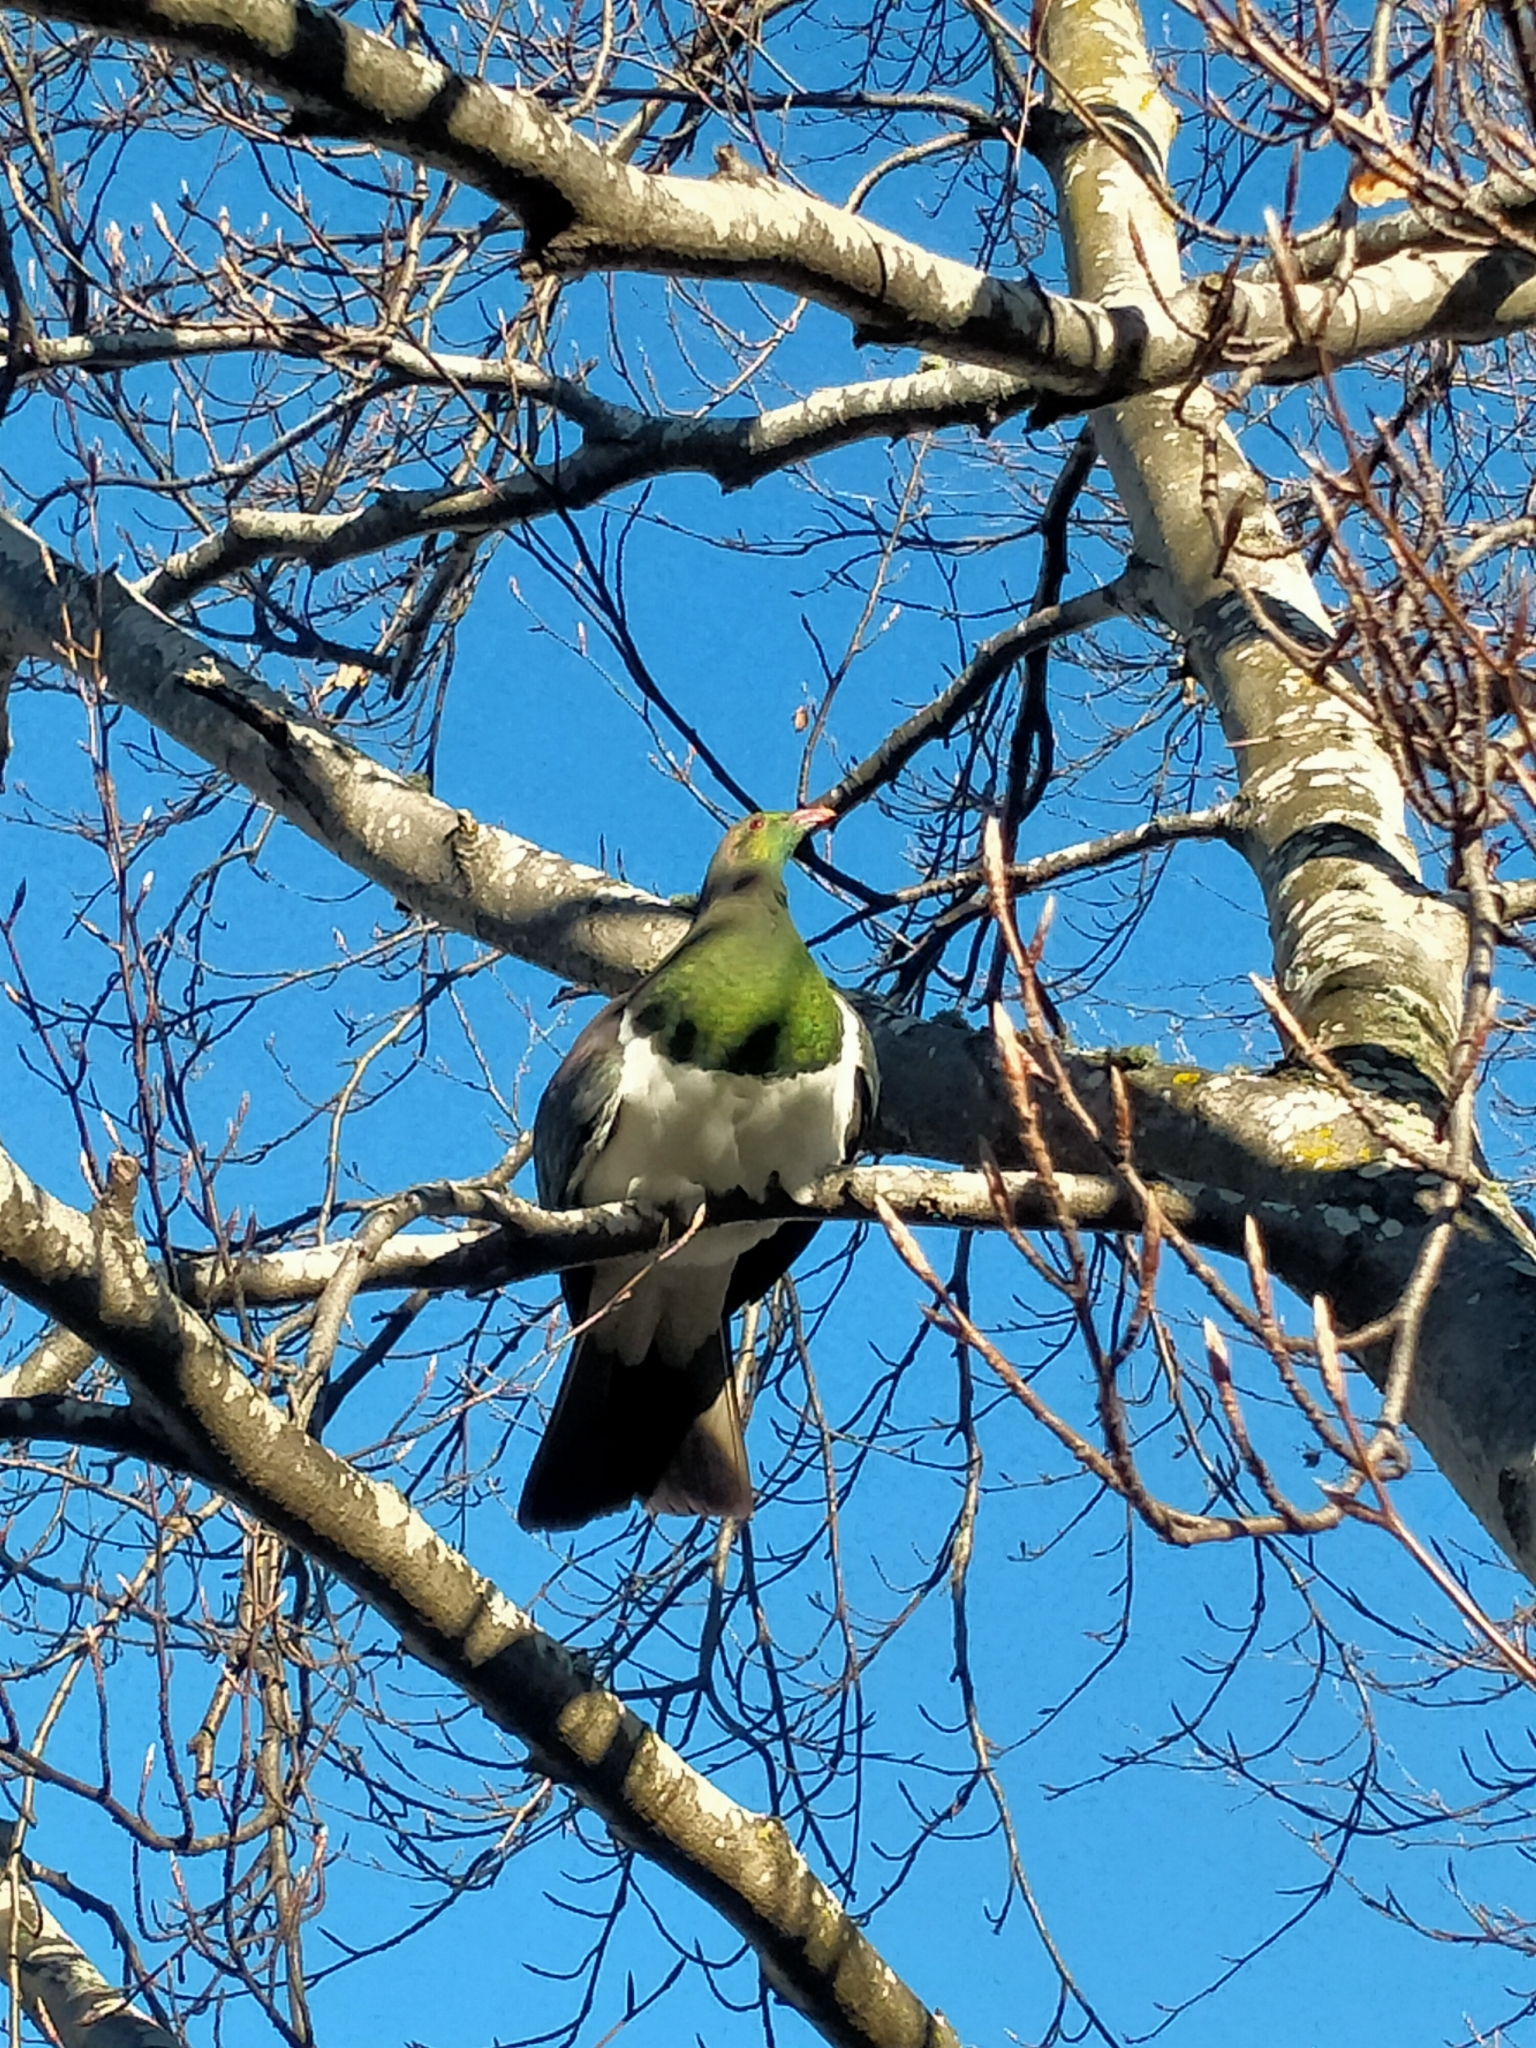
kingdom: Animalia
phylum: Chordata
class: Aves
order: Columbiformes
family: Columbidae
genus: Hemiphaga
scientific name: Hemiphaga novaeseelandiae
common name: New zealand pigeon
